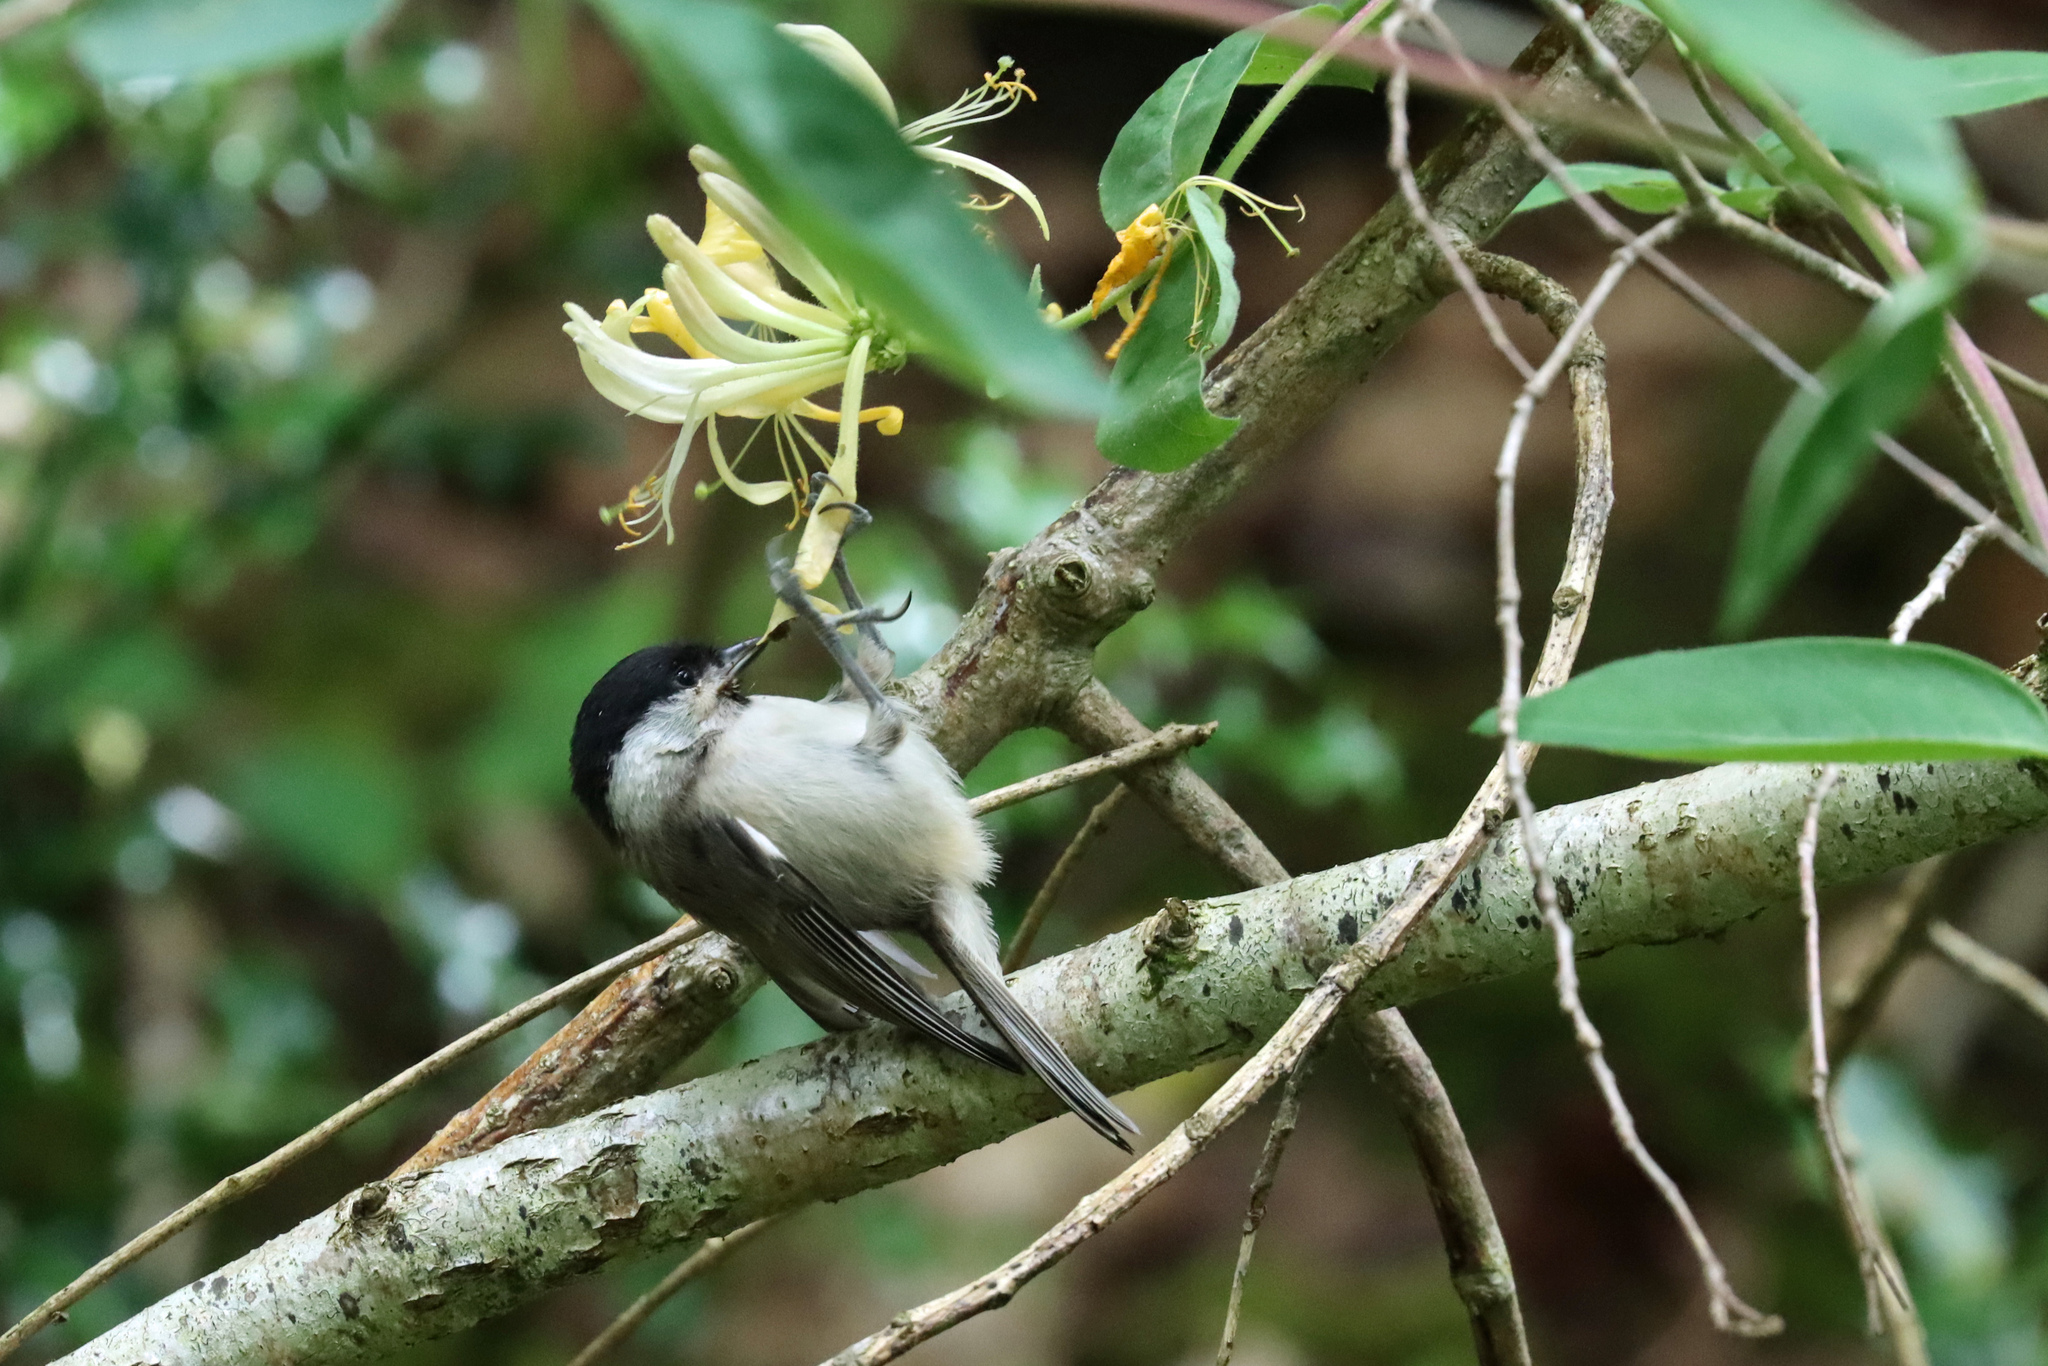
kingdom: Animalia
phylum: Chordata
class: Aves
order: Passeriformes
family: Paridae
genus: Poecile
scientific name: Poecile palustris
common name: Marsh tit
